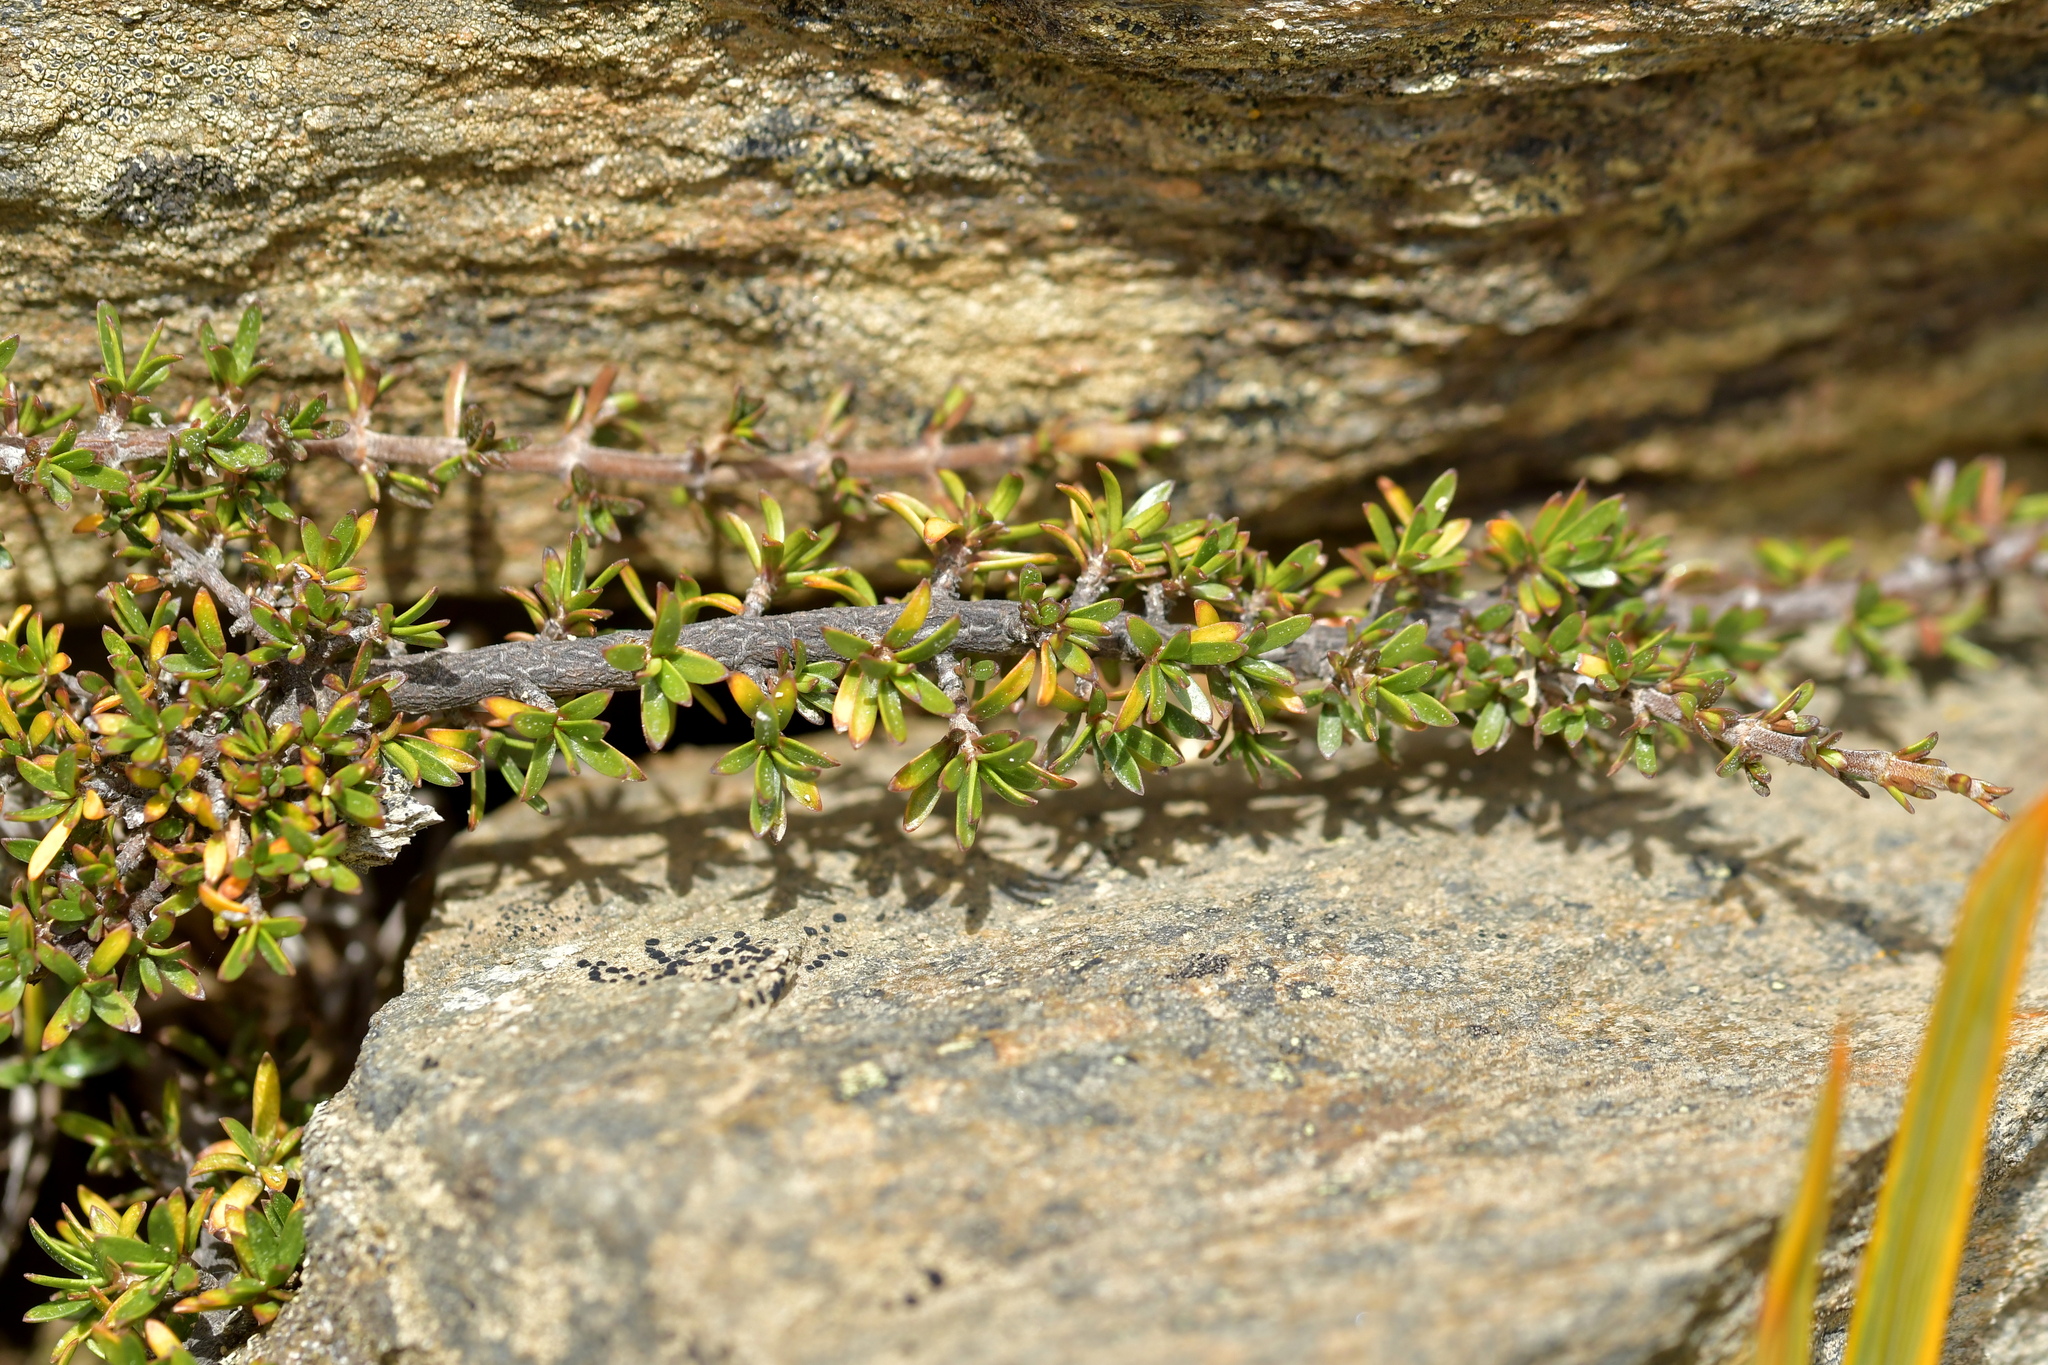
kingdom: Plantae
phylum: Tracheophyta
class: Magnoliopsida
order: Gentianales
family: Rubiaceae
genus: Coprosma
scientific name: Coprosma petriei
